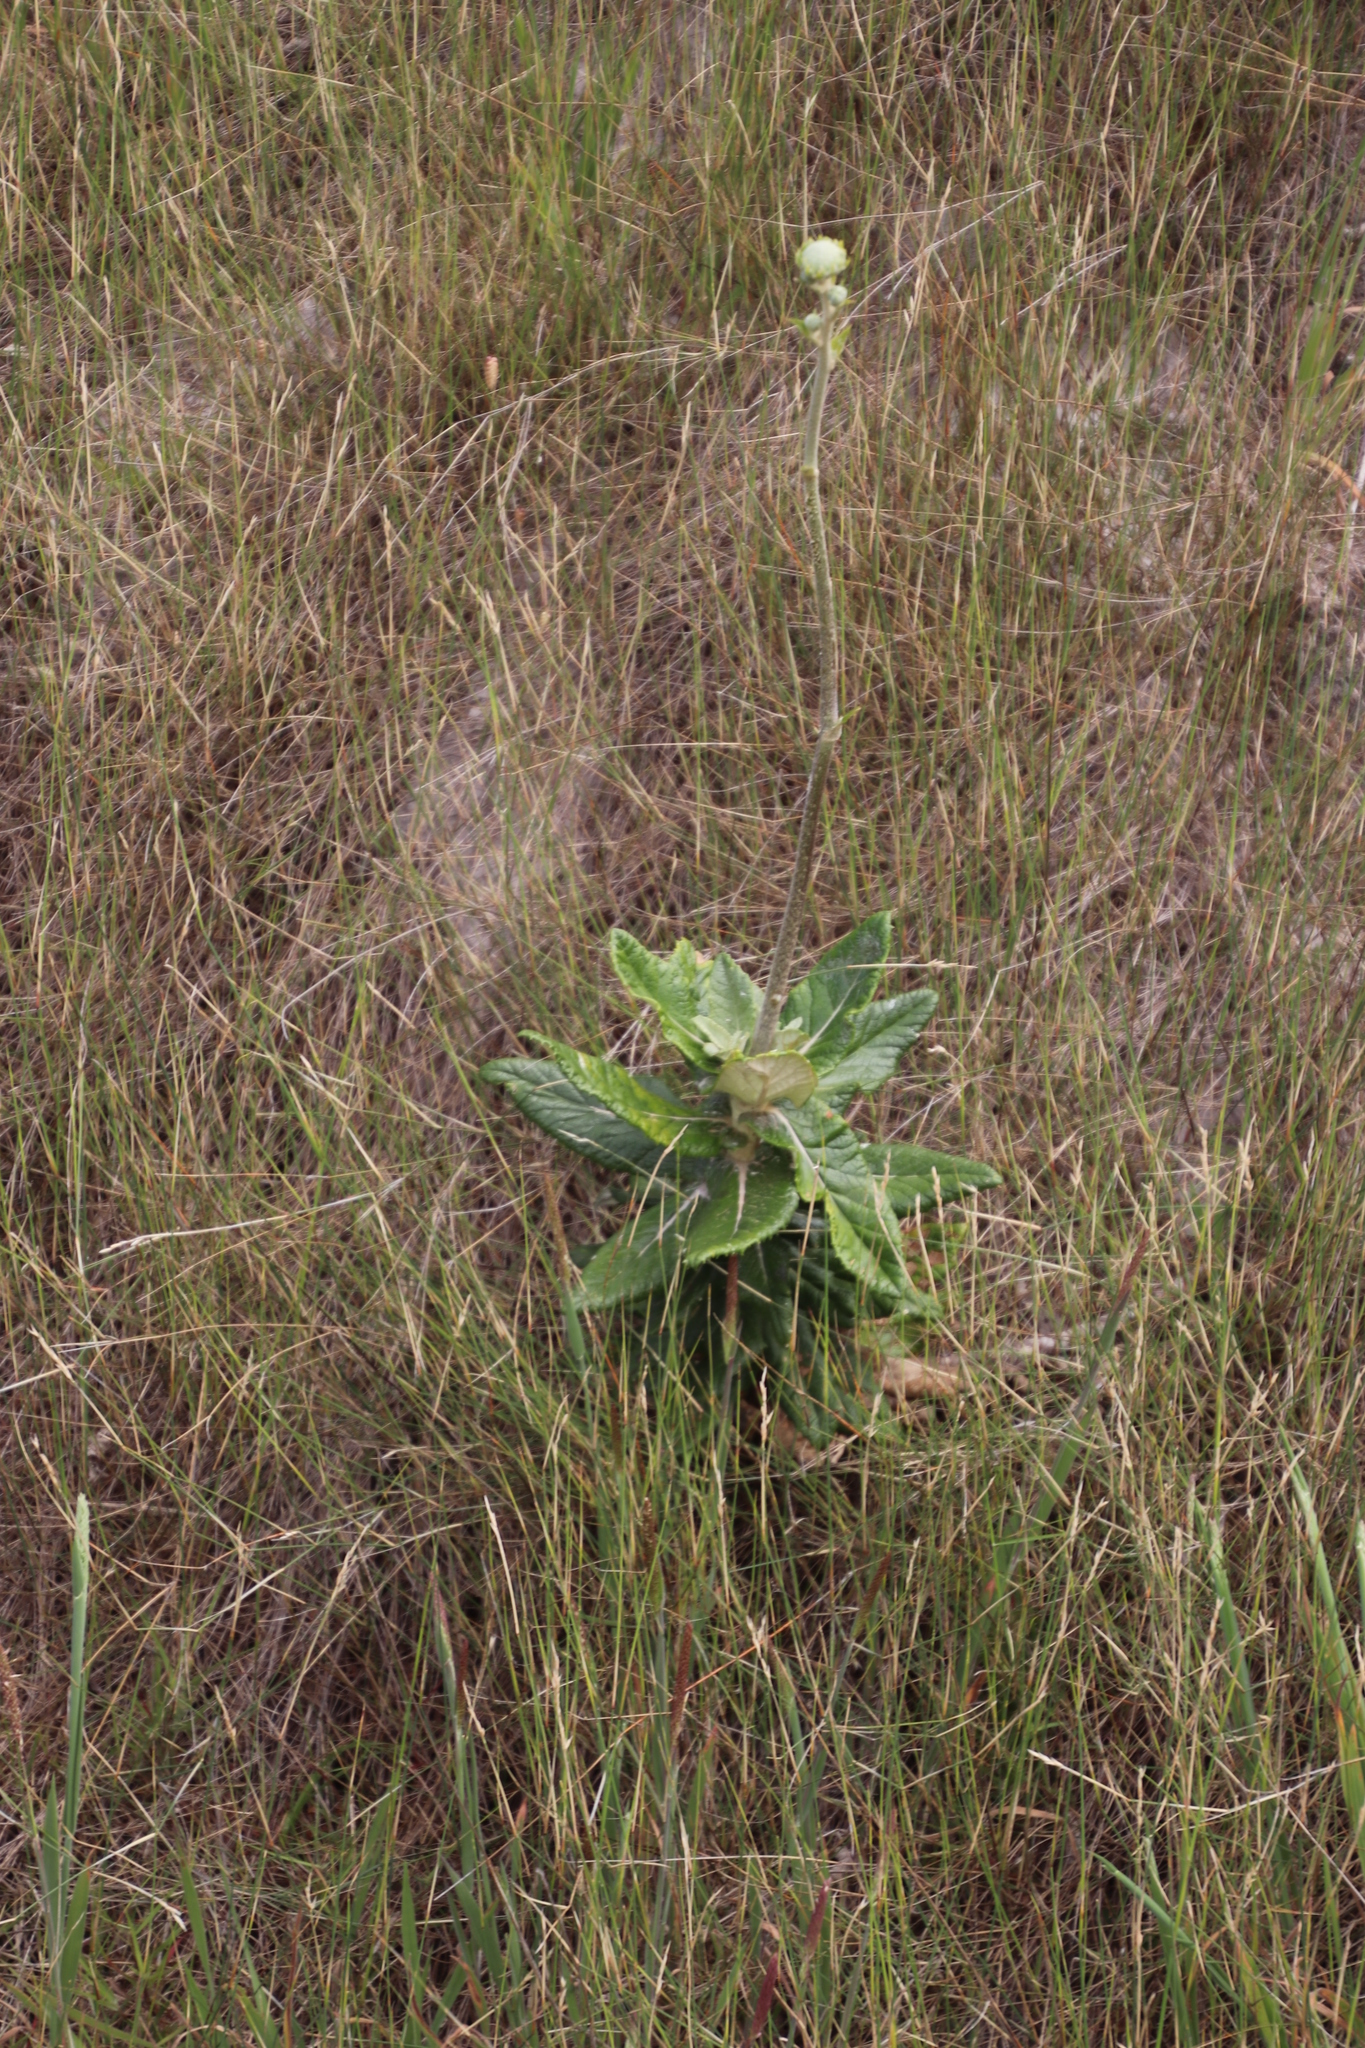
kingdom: Plantae
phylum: Tracheophyta
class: Magnoliopsida
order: Apiales
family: Apiaceae
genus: Hermas
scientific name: Hermas villosa
